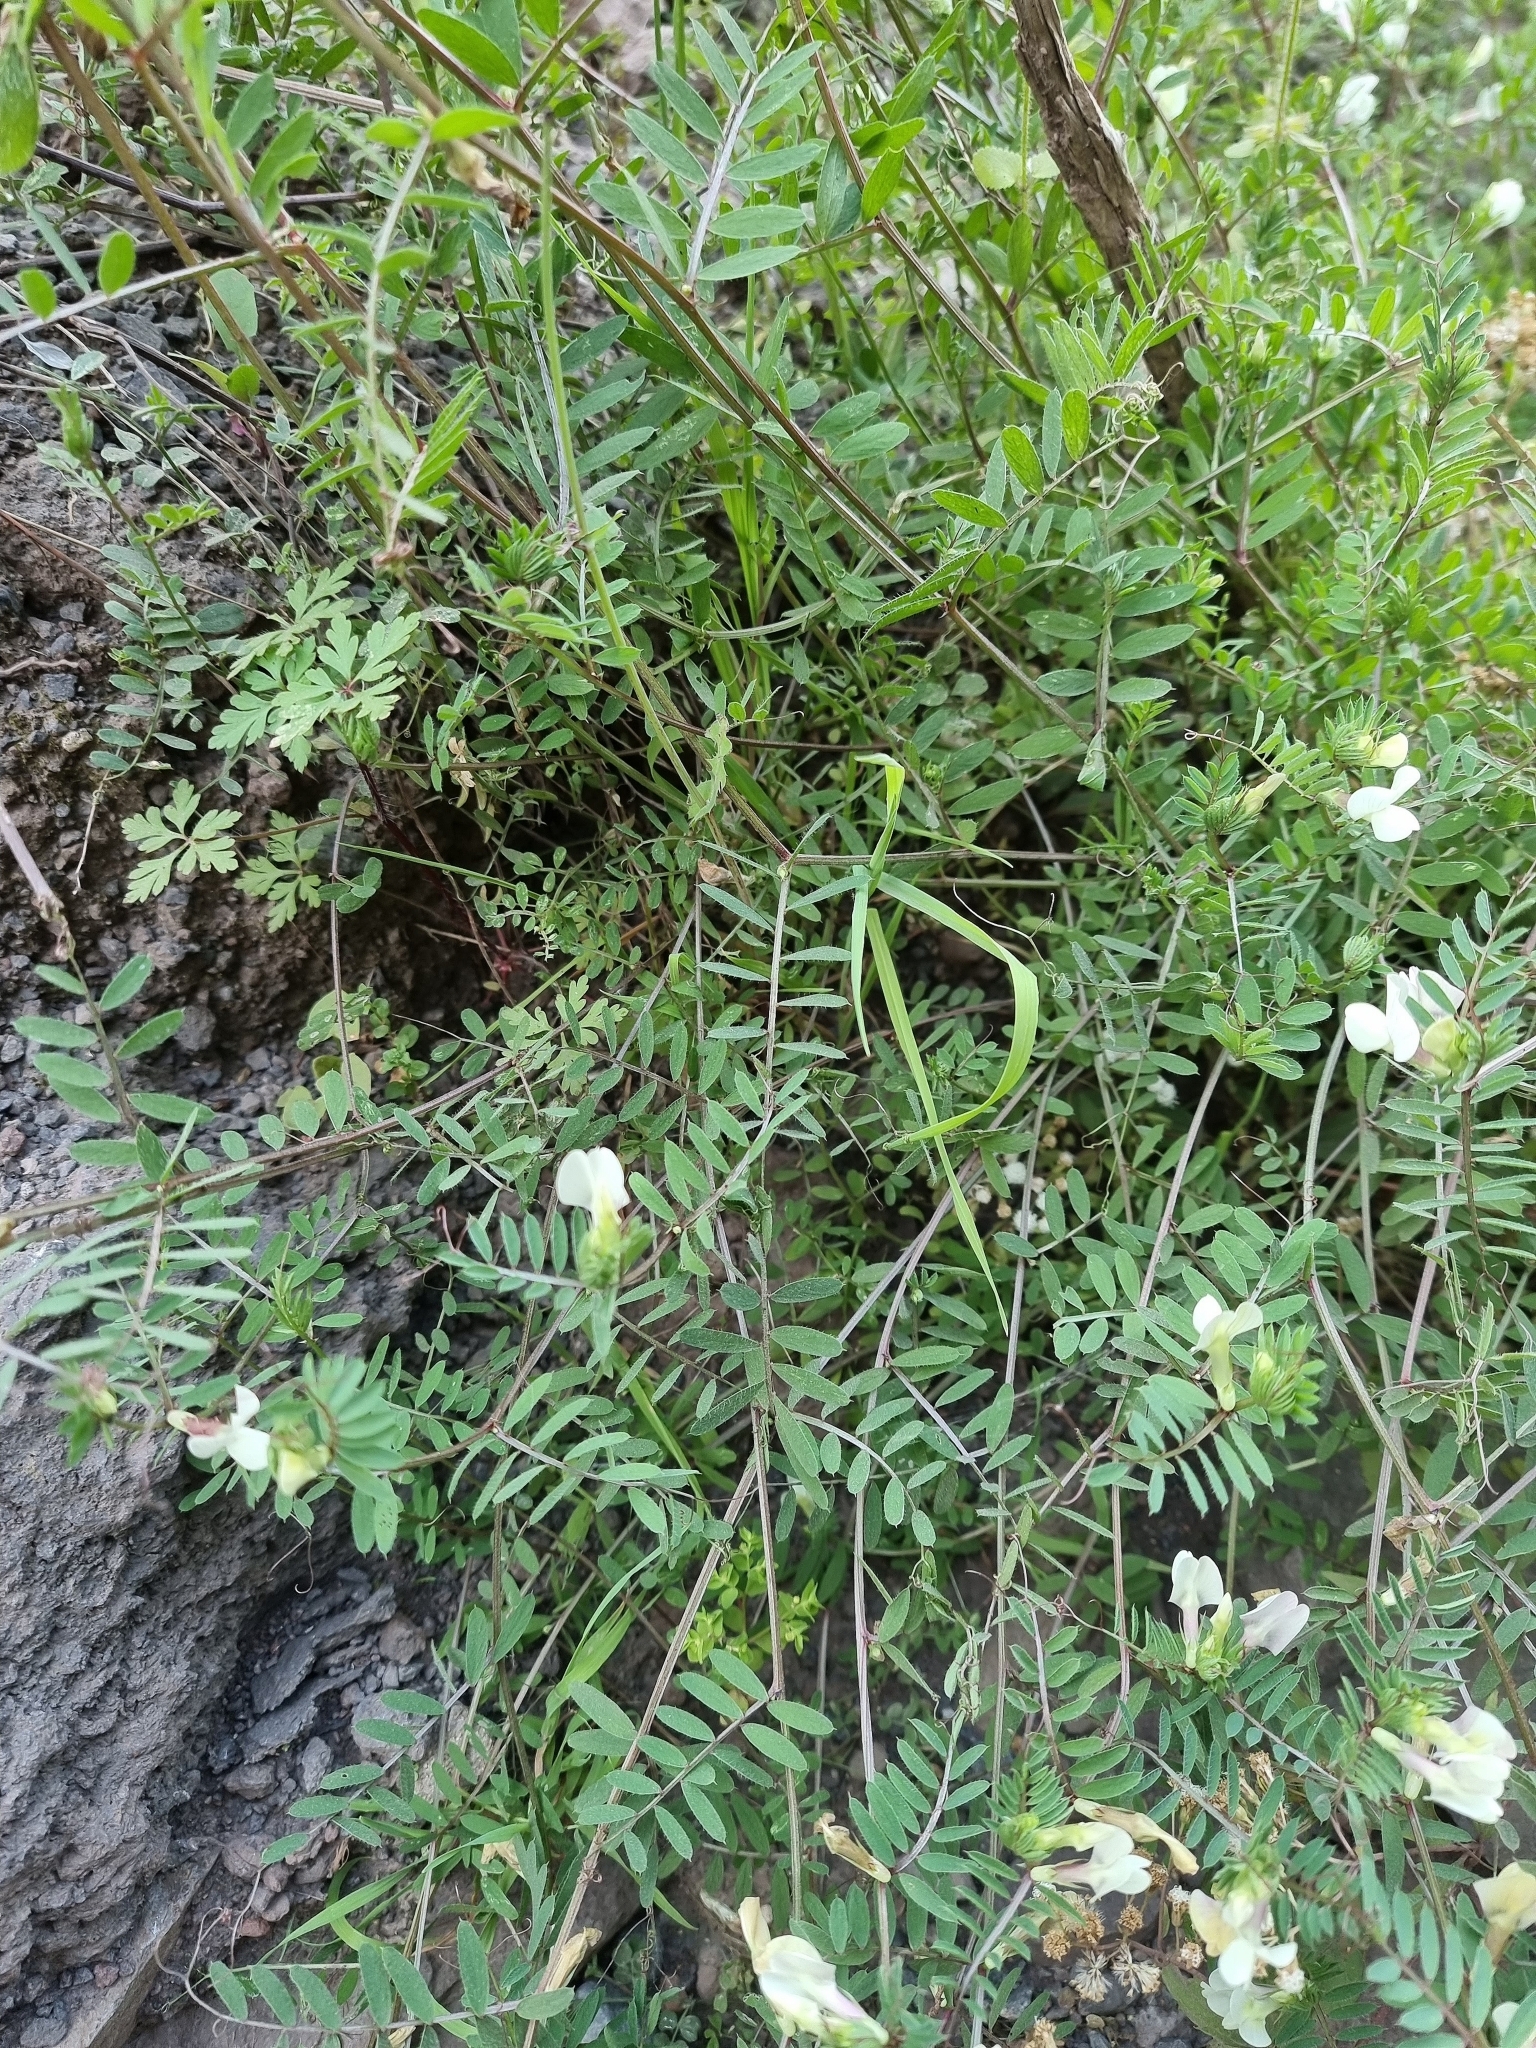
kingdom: Plantae
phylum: Tracheophyta
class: Magnoliopsida
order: Fabales
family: Fabaceae
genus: Vicia
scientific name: Vicia lutea
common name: Smooth yellow vetch
